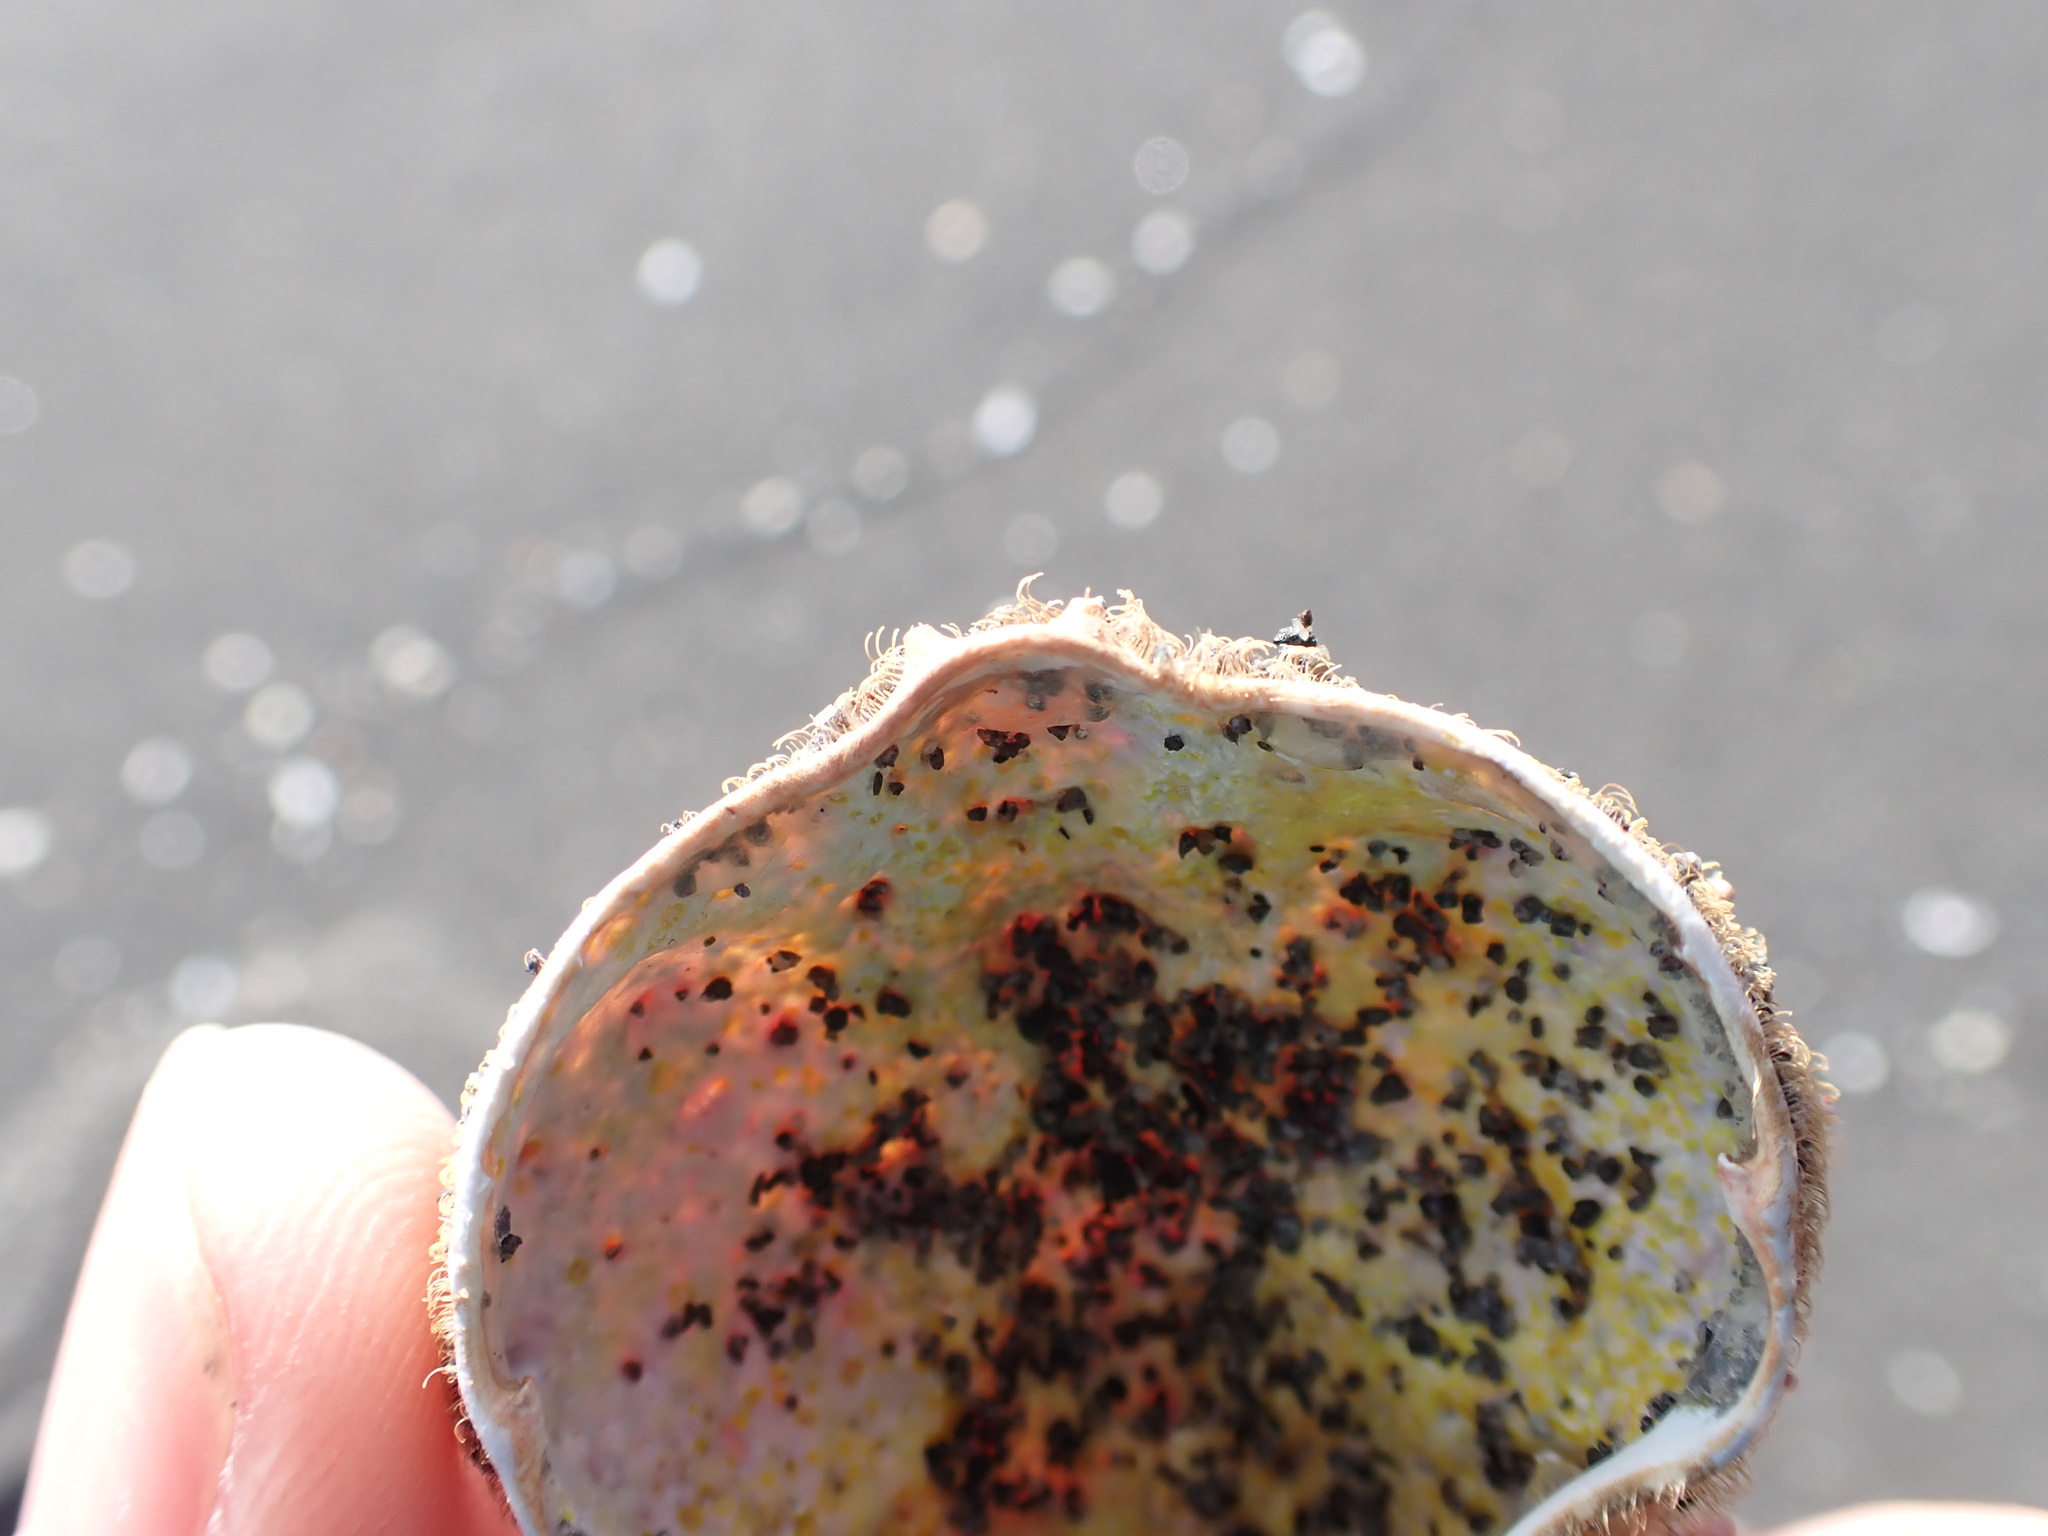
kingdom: Animalia
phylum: Arthropoda
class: Malacostraca
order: Decapoda
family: Majidae
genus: Notomithrax
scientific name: Notomithrax peronii
